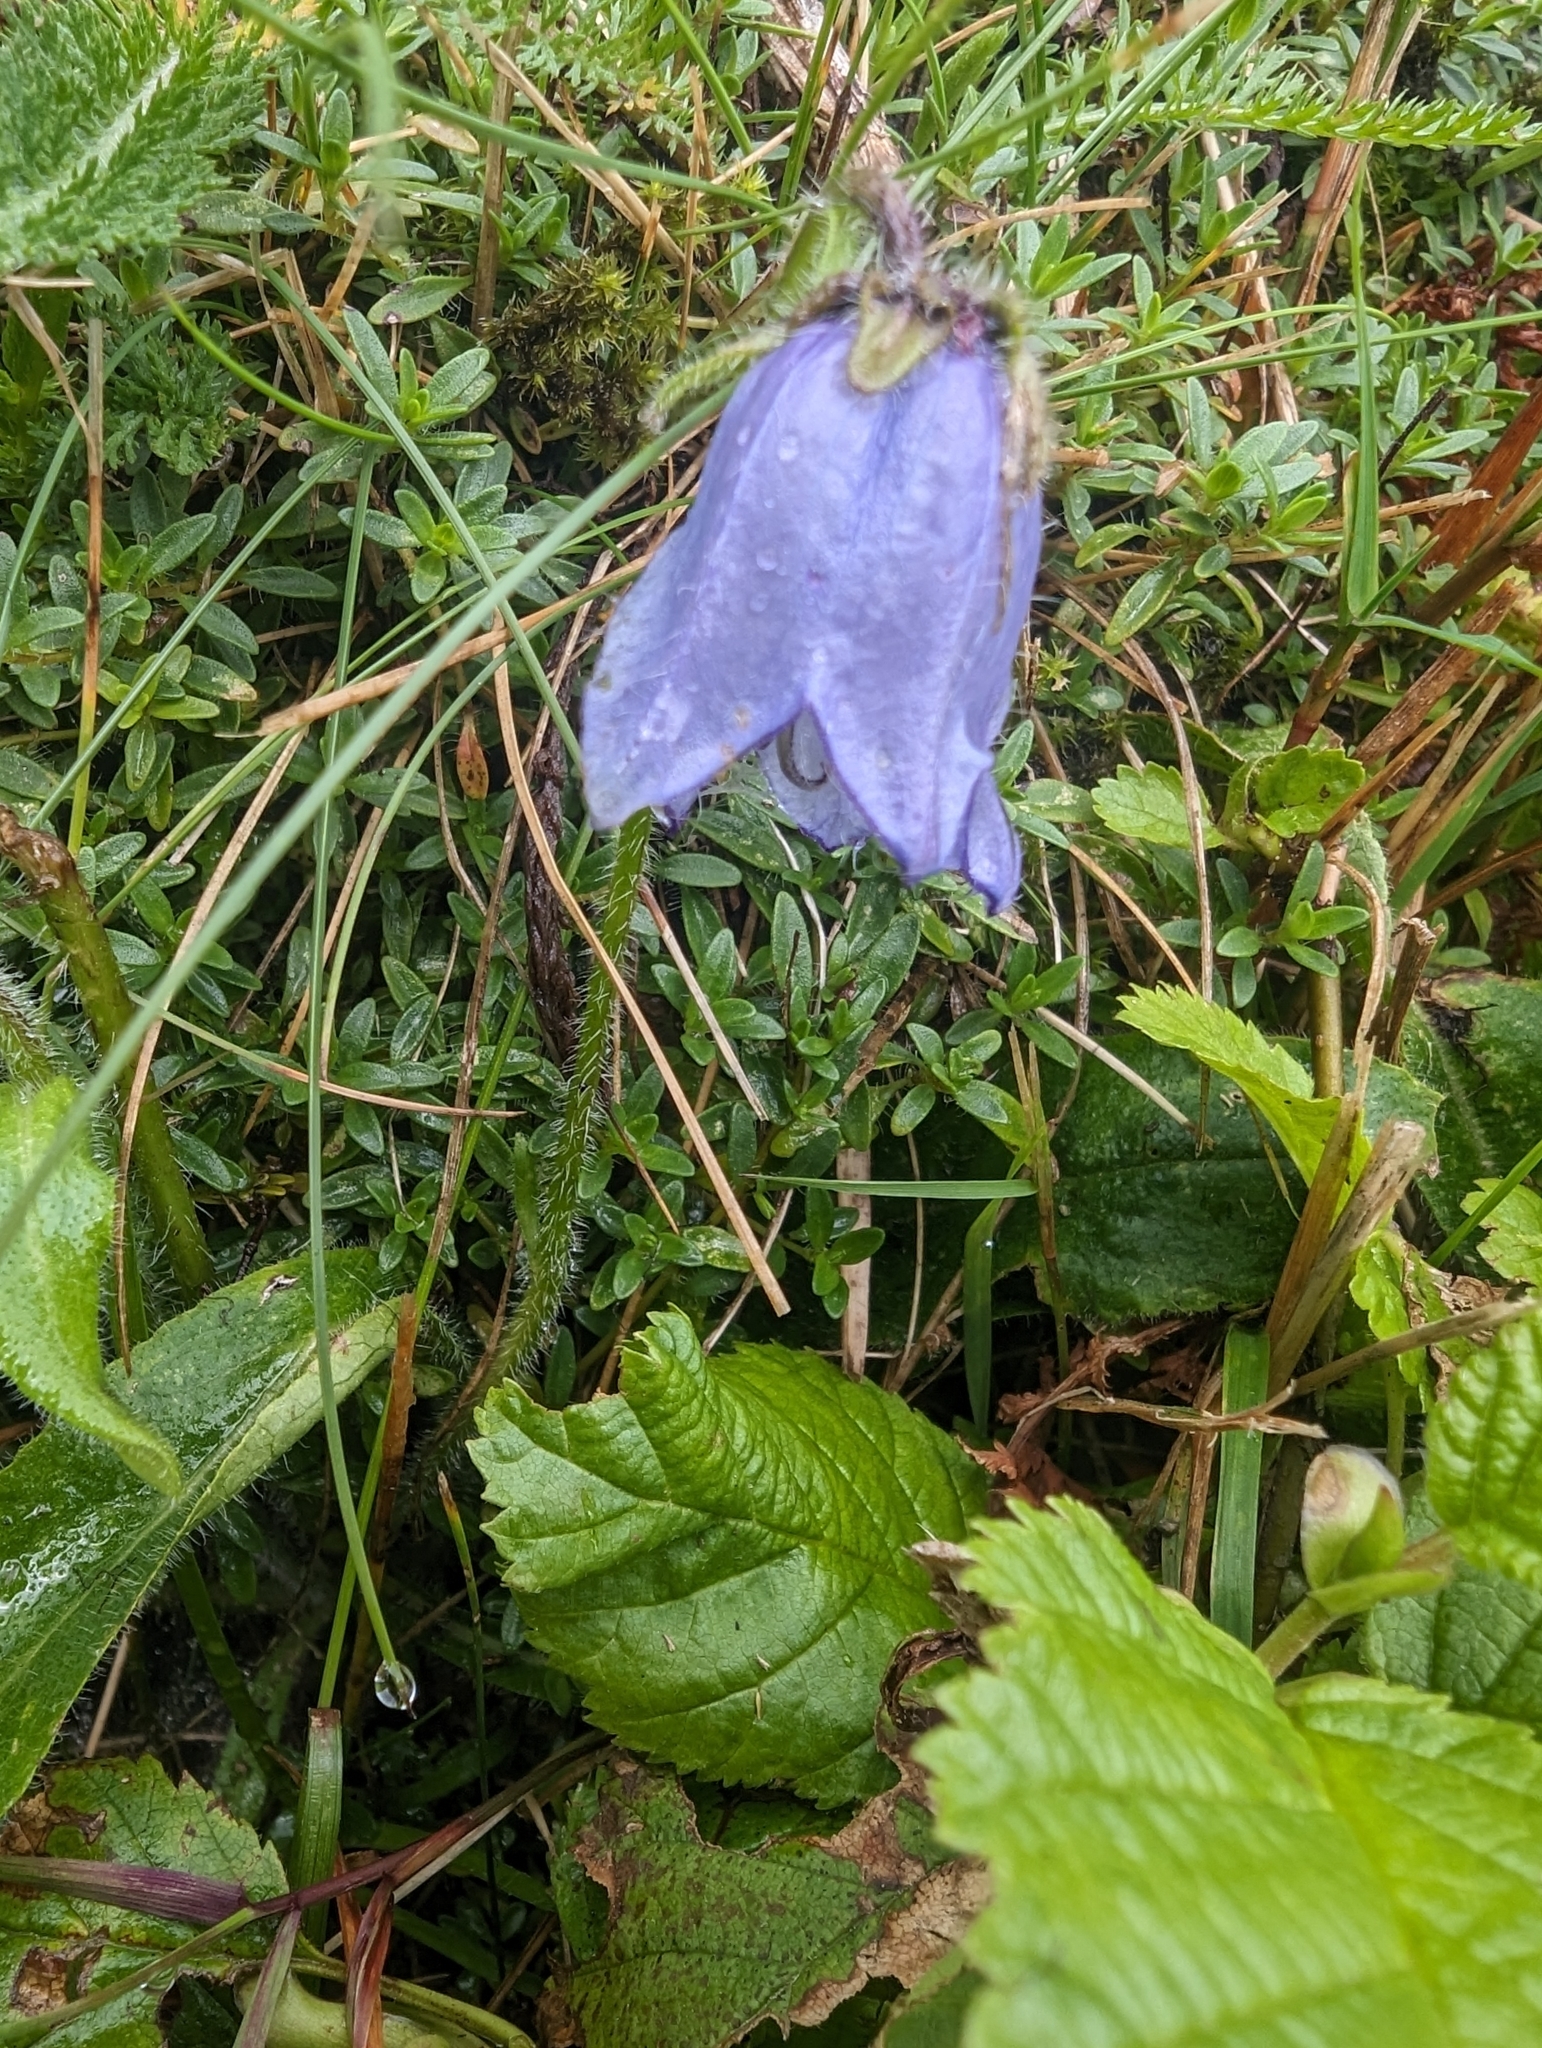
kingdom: Plantae
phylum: Tracheophyta
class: Magnoliopsida
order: Asterales
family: Campanulaceae
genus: Campanula
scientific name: Campanula barbata
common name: Bearded bellflower
